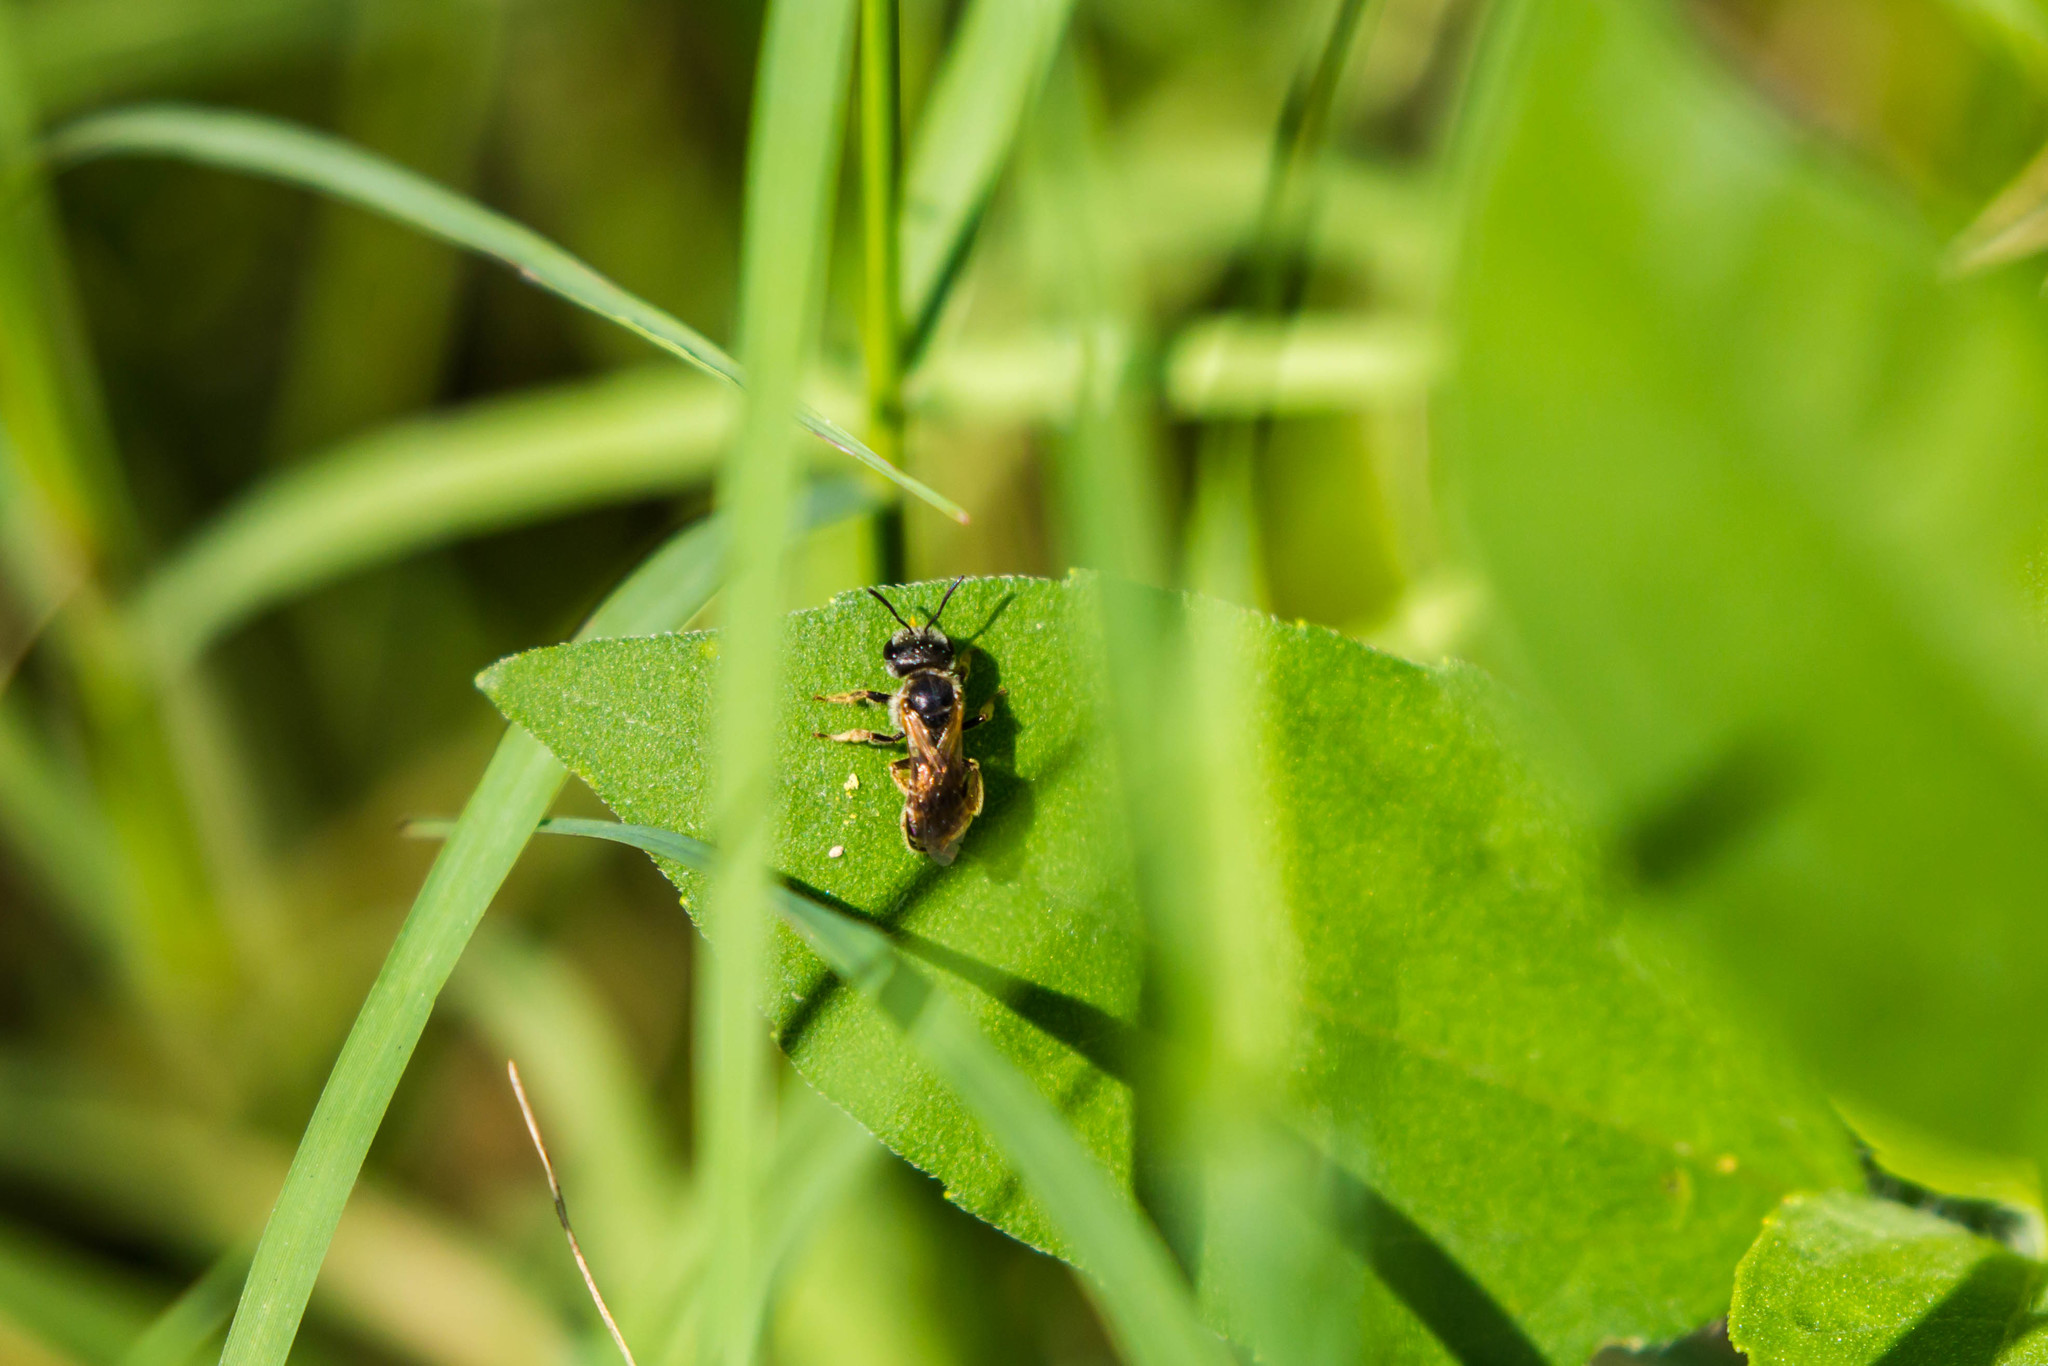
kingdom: Animalia
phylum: Arthropoda
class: Insecta
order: Hymenoptera
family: Halictidae
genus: Halictus
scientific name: Halictus ligatus
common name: Ligated furrow bee
